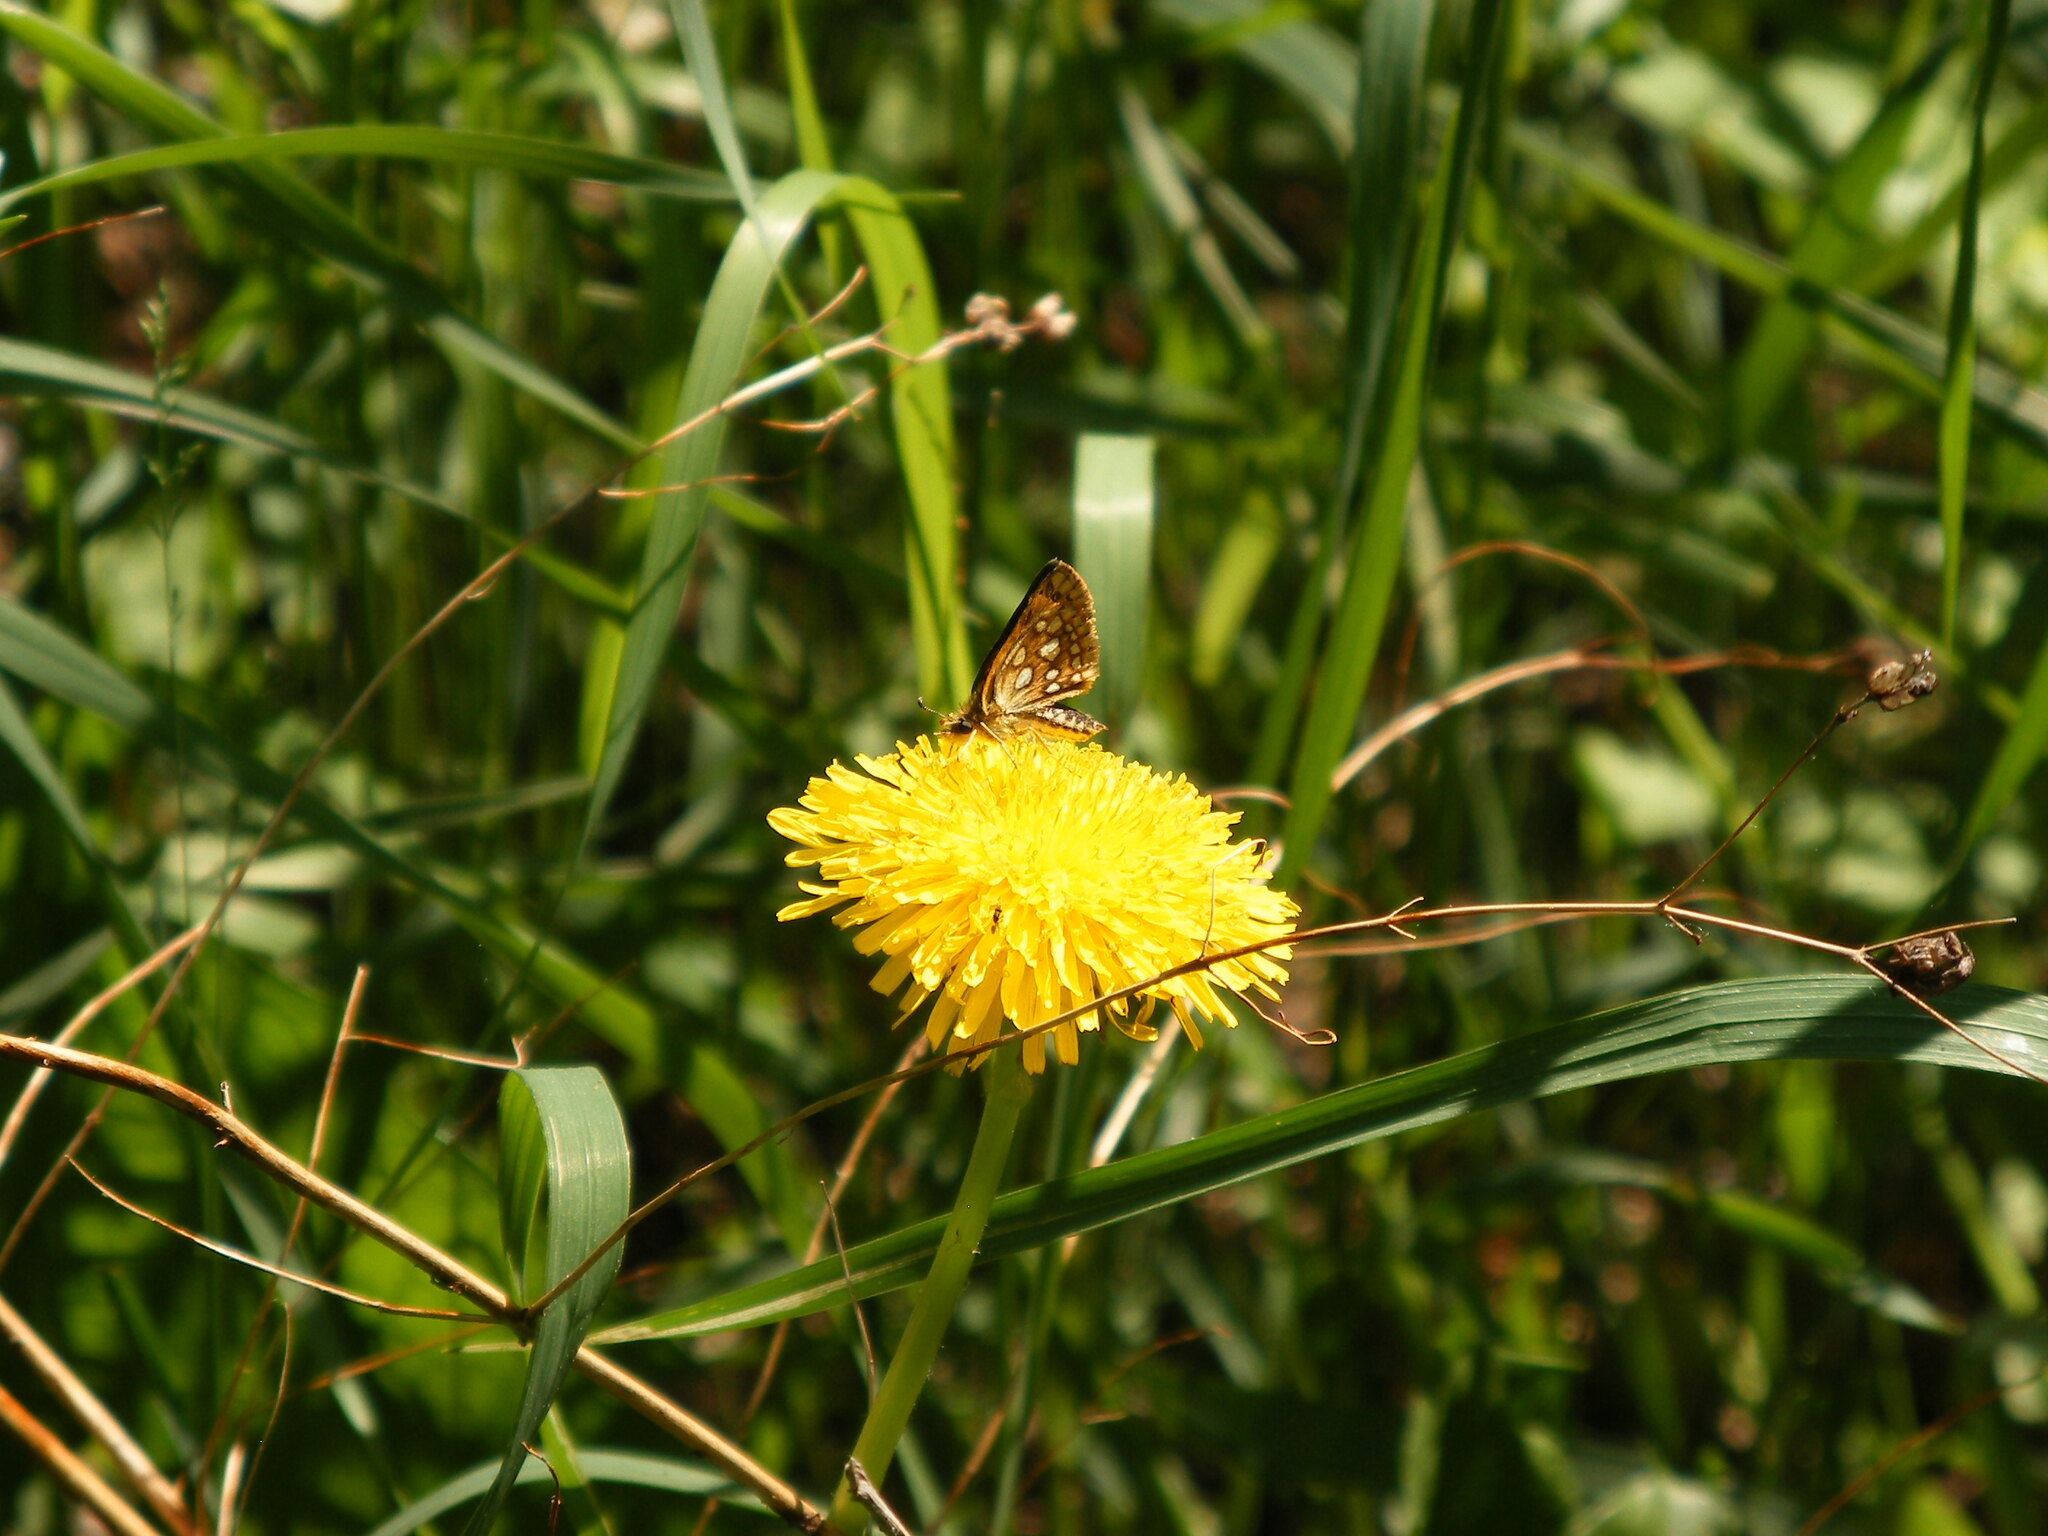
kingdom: Animalia
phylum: Arthropoda
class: Insecta
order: Lepidoptera
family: Hesperiidae
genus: Carterocephalus
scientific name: Carterocephalus mandan
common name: Arctic skipperling
